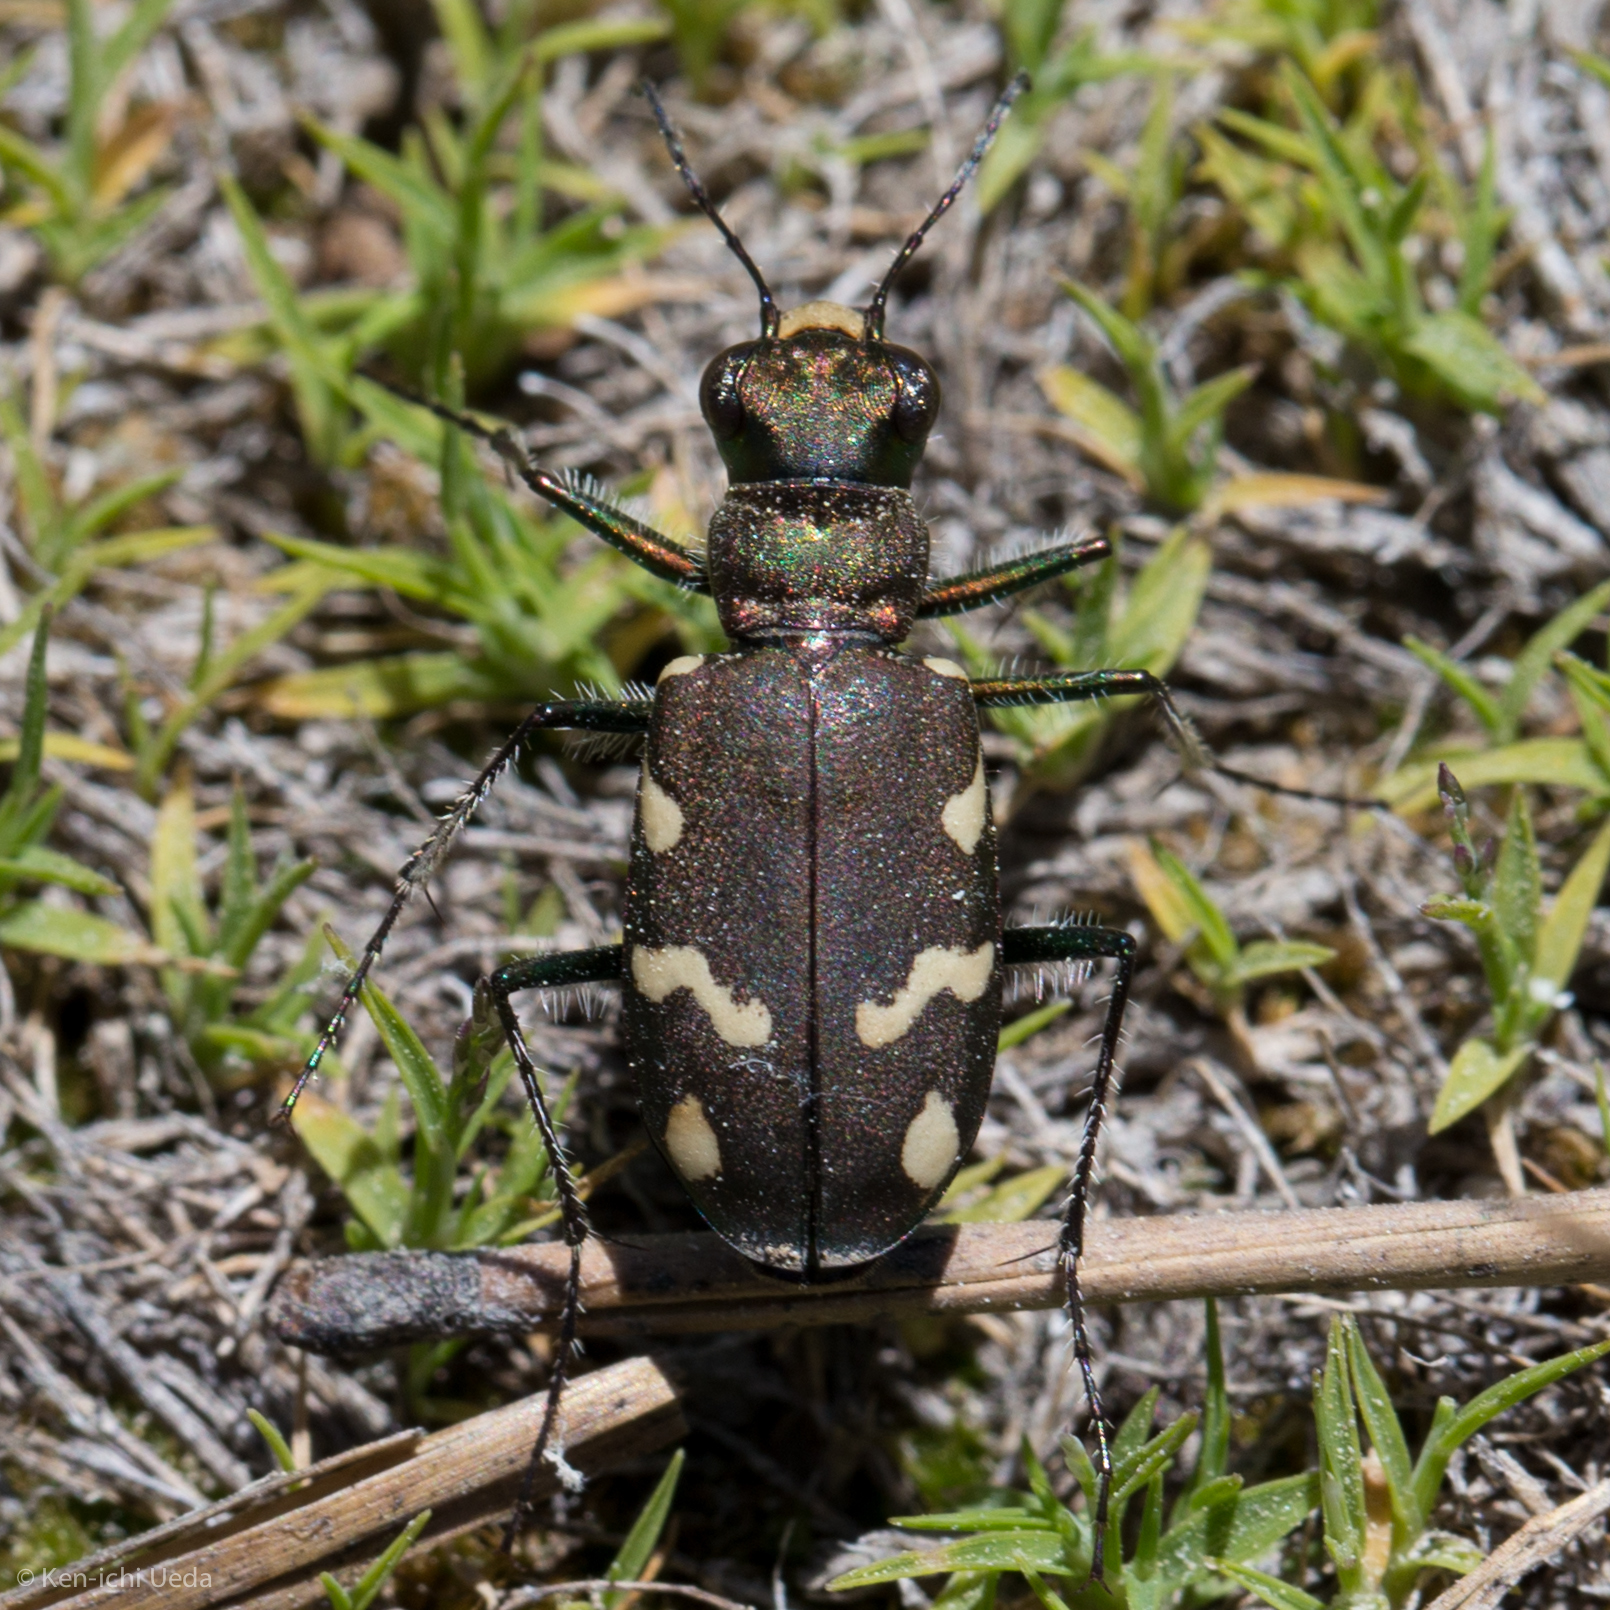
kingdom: Animalia
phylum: Arthropoda
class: Insecta
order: Coleoptera
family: Carabidae
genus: Cicindela
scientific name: Cicindela longilabris
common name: Boreal long-lipped tiger beetle
